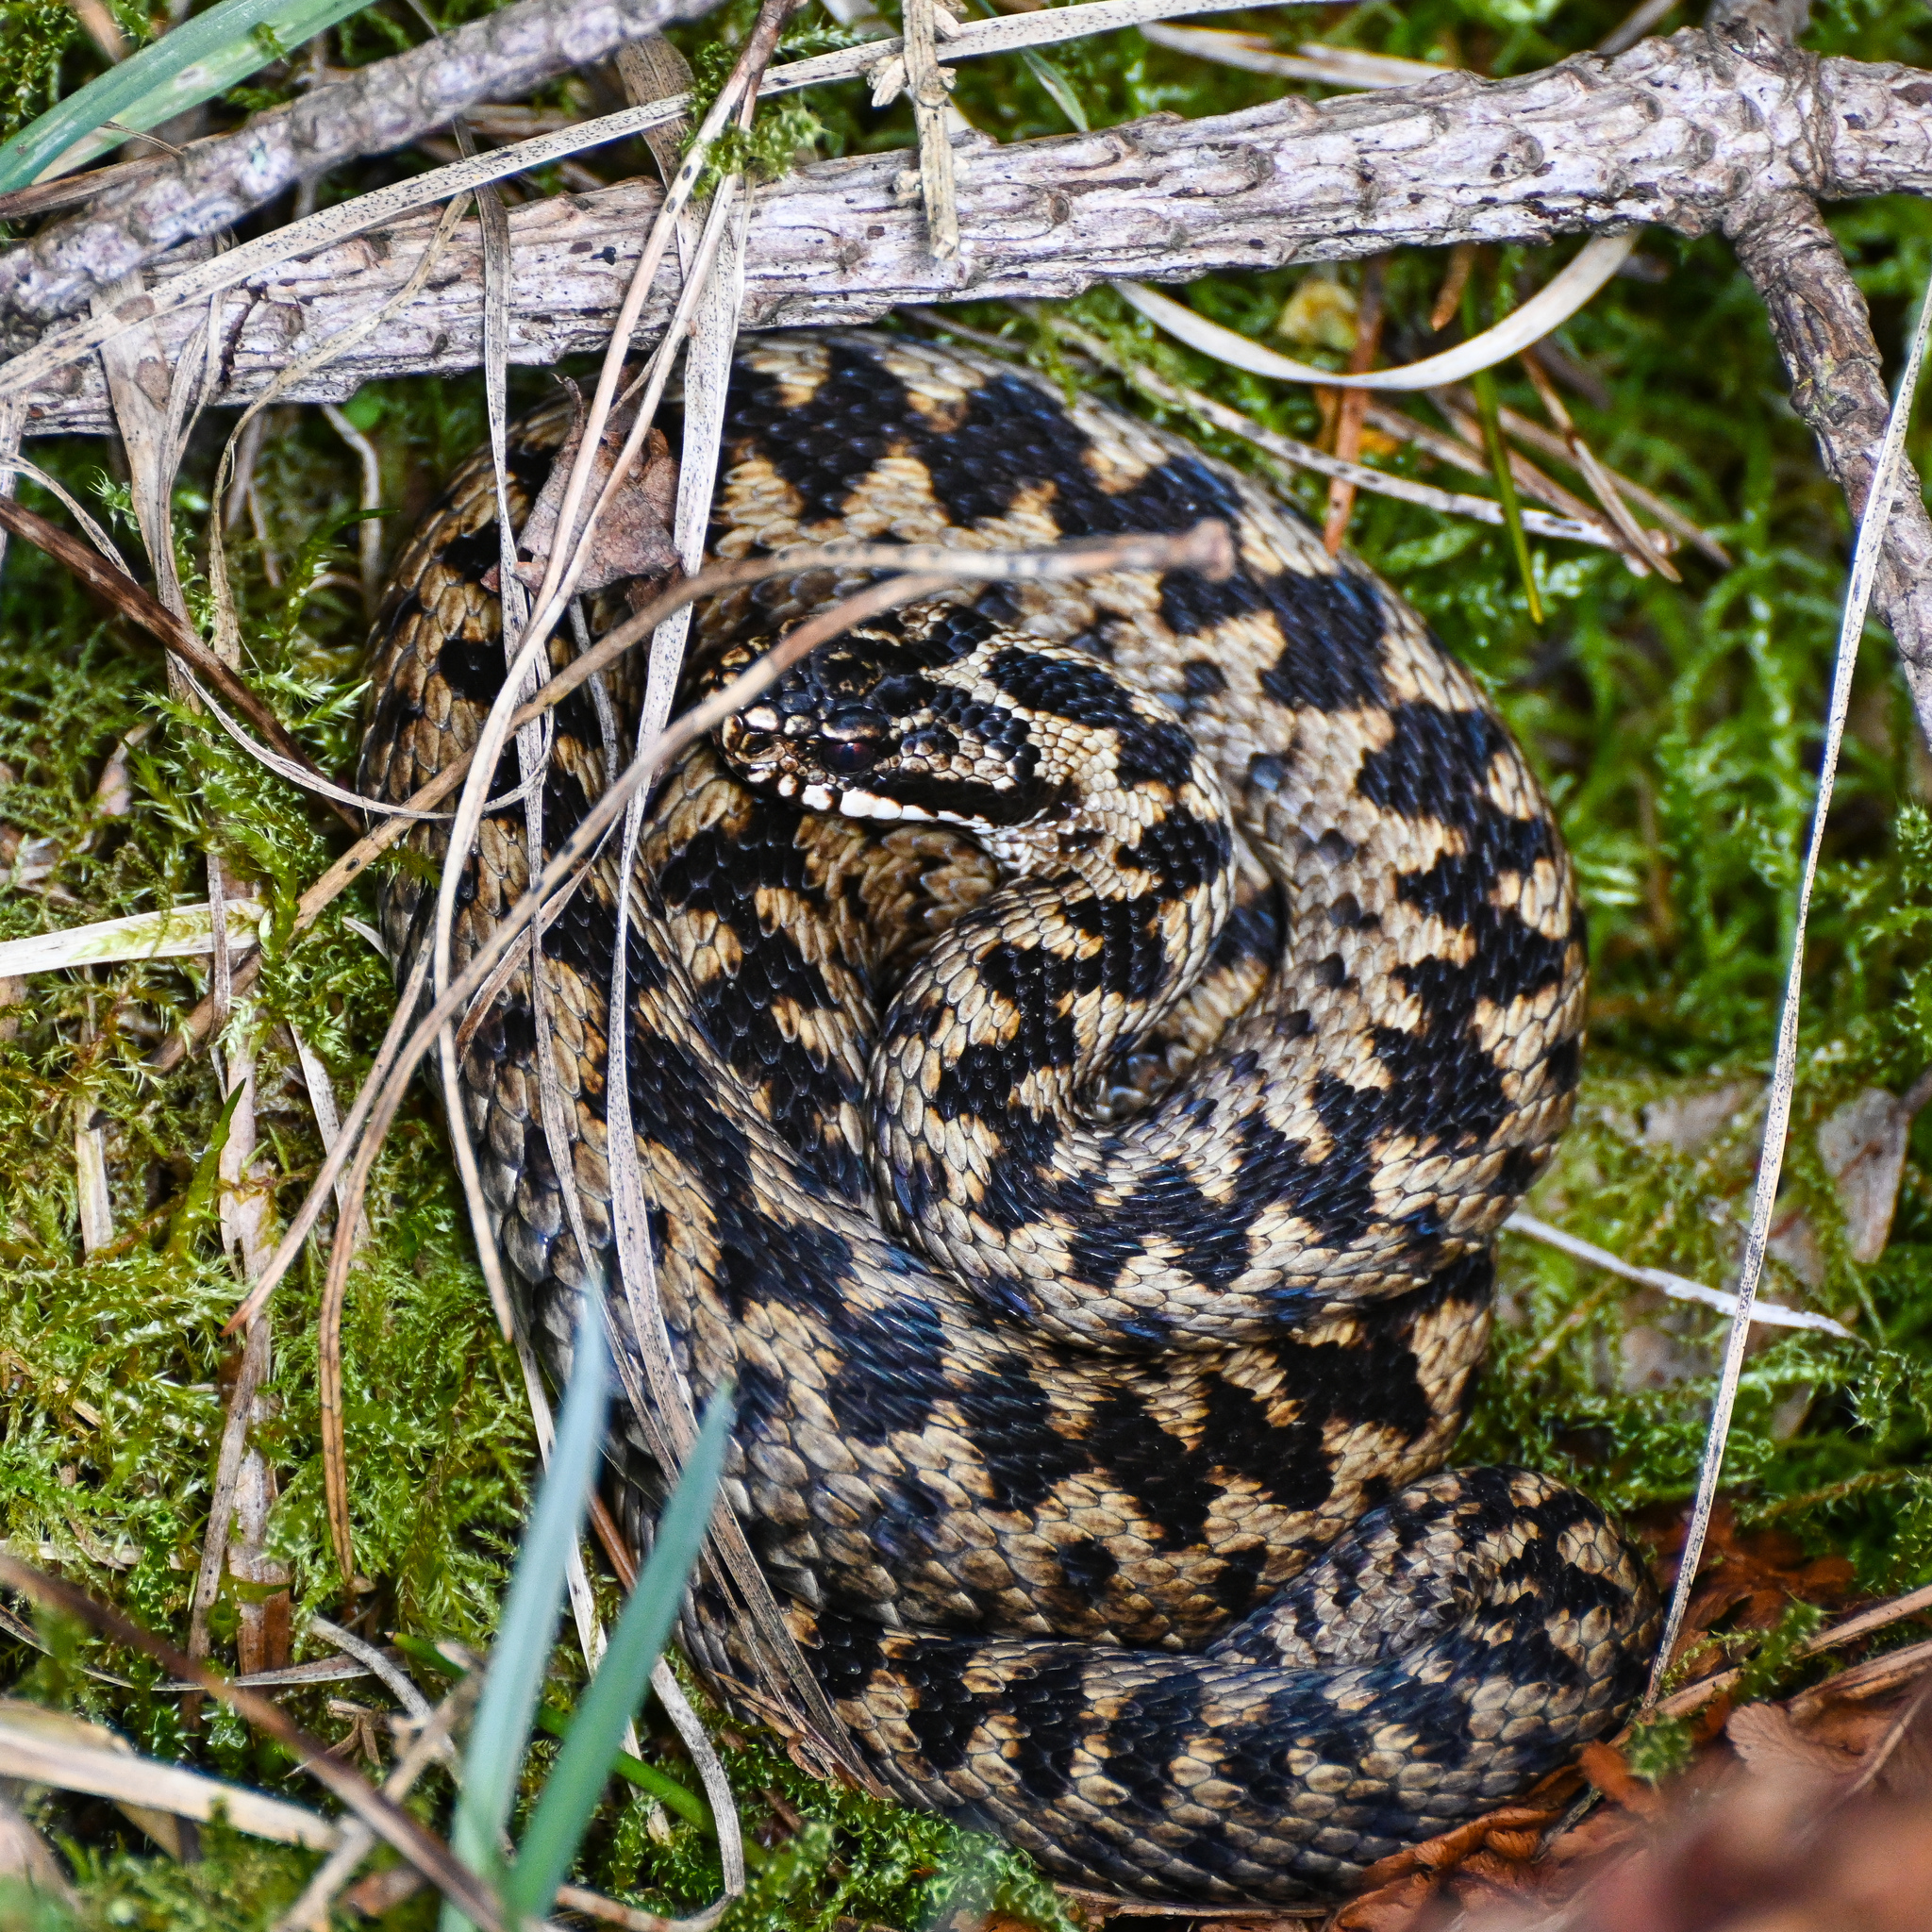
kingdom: Animalia
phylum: Chordata
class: Squamata
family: Viperidae
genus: Vipera
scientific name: Vipera berus
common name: Adder
